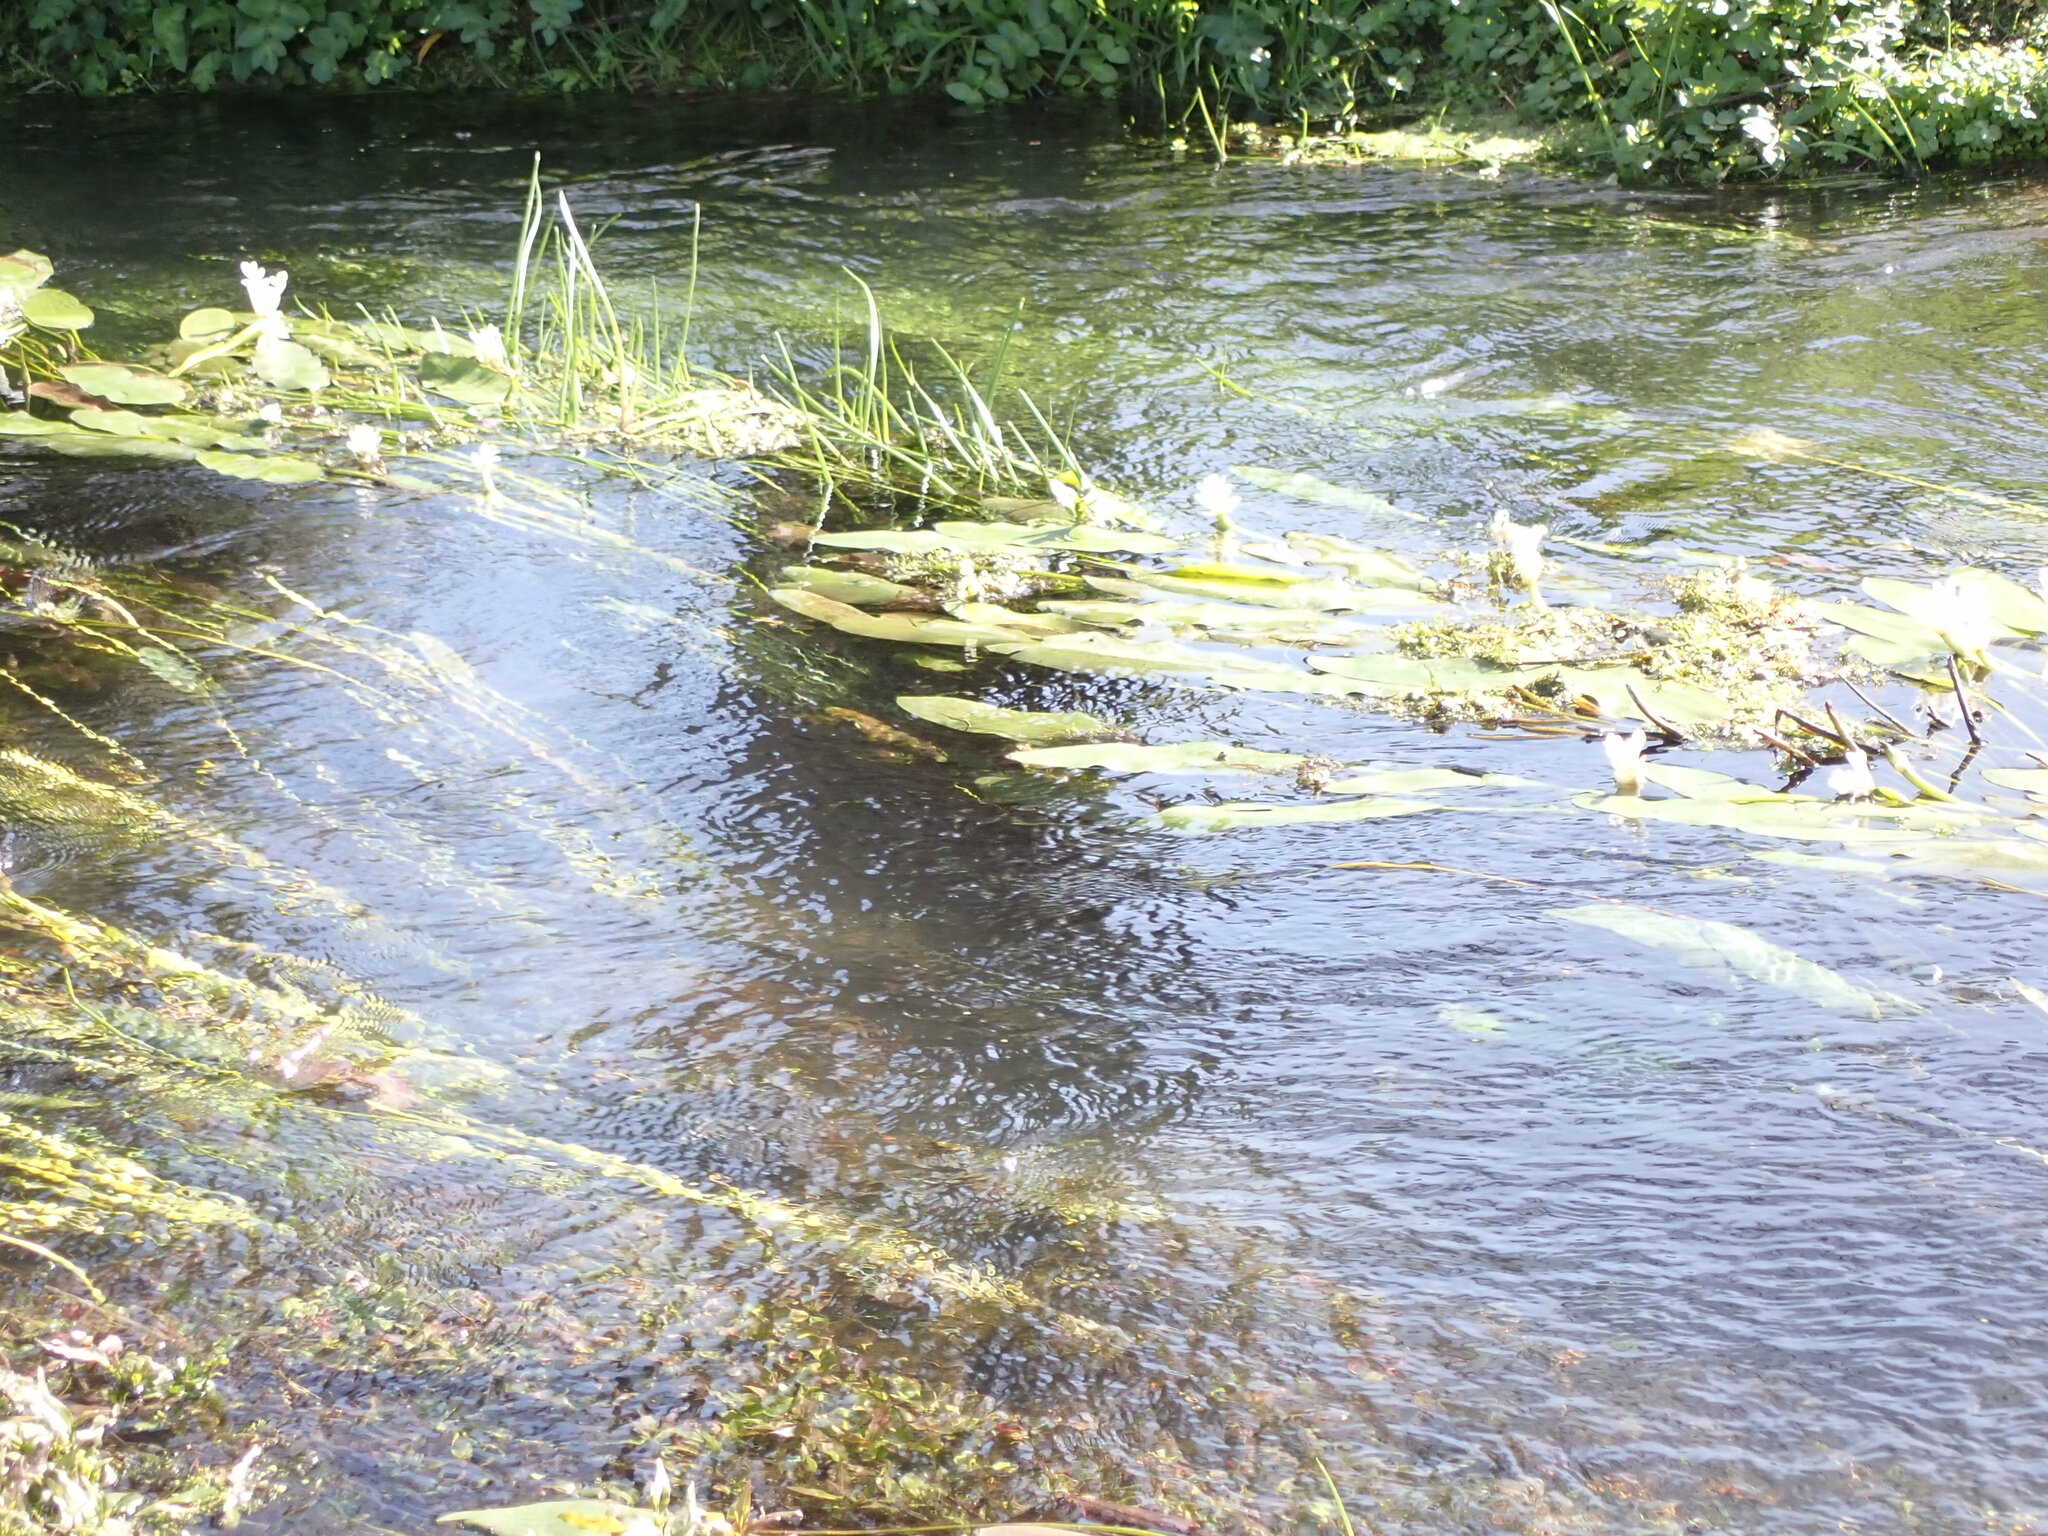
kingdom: Plantae
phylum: Tracheophyta
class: Liliopsida
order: Alismatales
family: Aponogetonaceae
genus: Aponogeton
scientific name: Aponogeton distachyos
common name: Cape-pondweed
